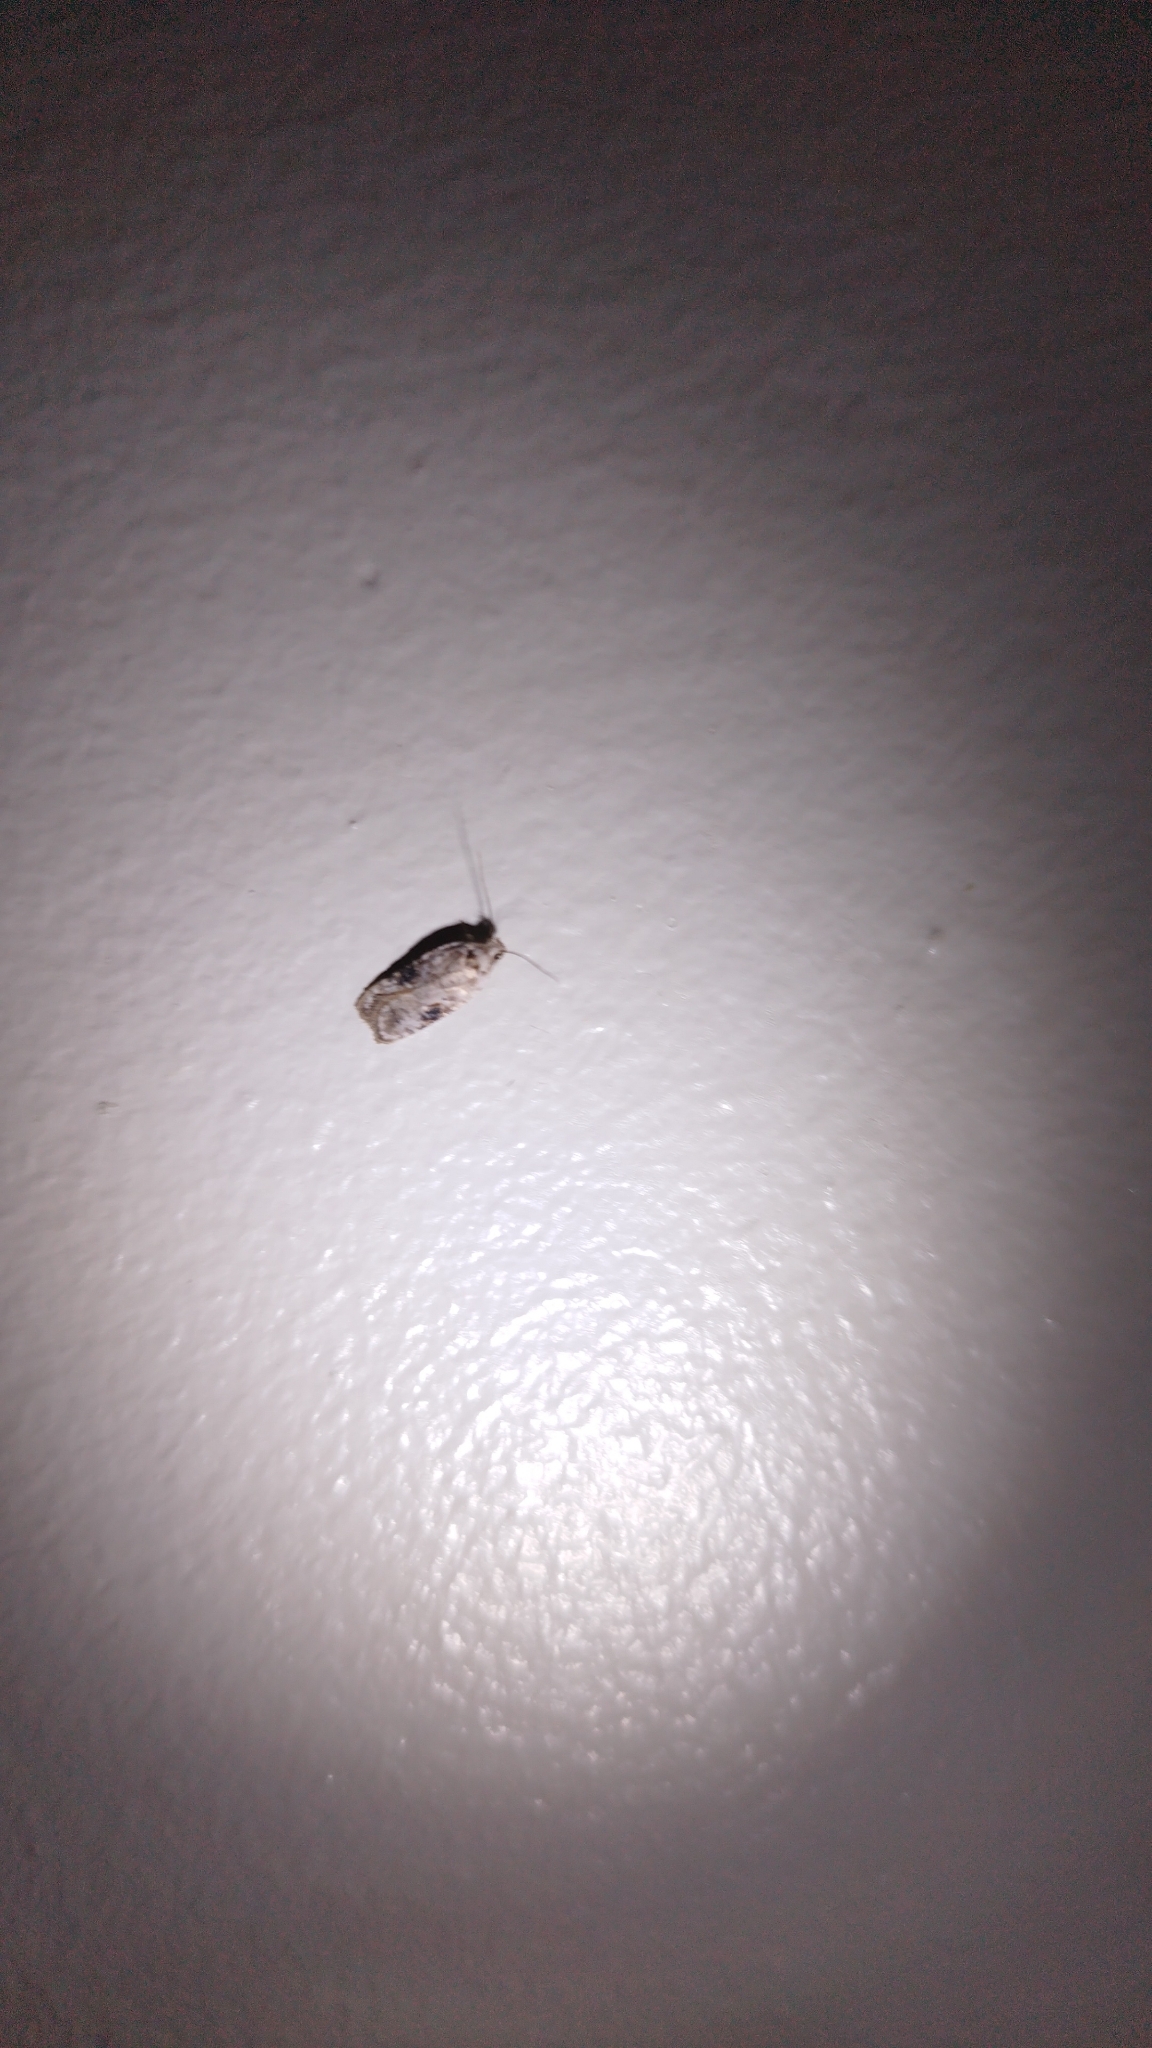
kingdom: Animalia
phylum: Arthropoda
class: Insecta
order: Lepidoptera
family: Depressariidae
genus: Agonopterix
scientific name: Agonopterix alstroemeriana
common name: Moth
